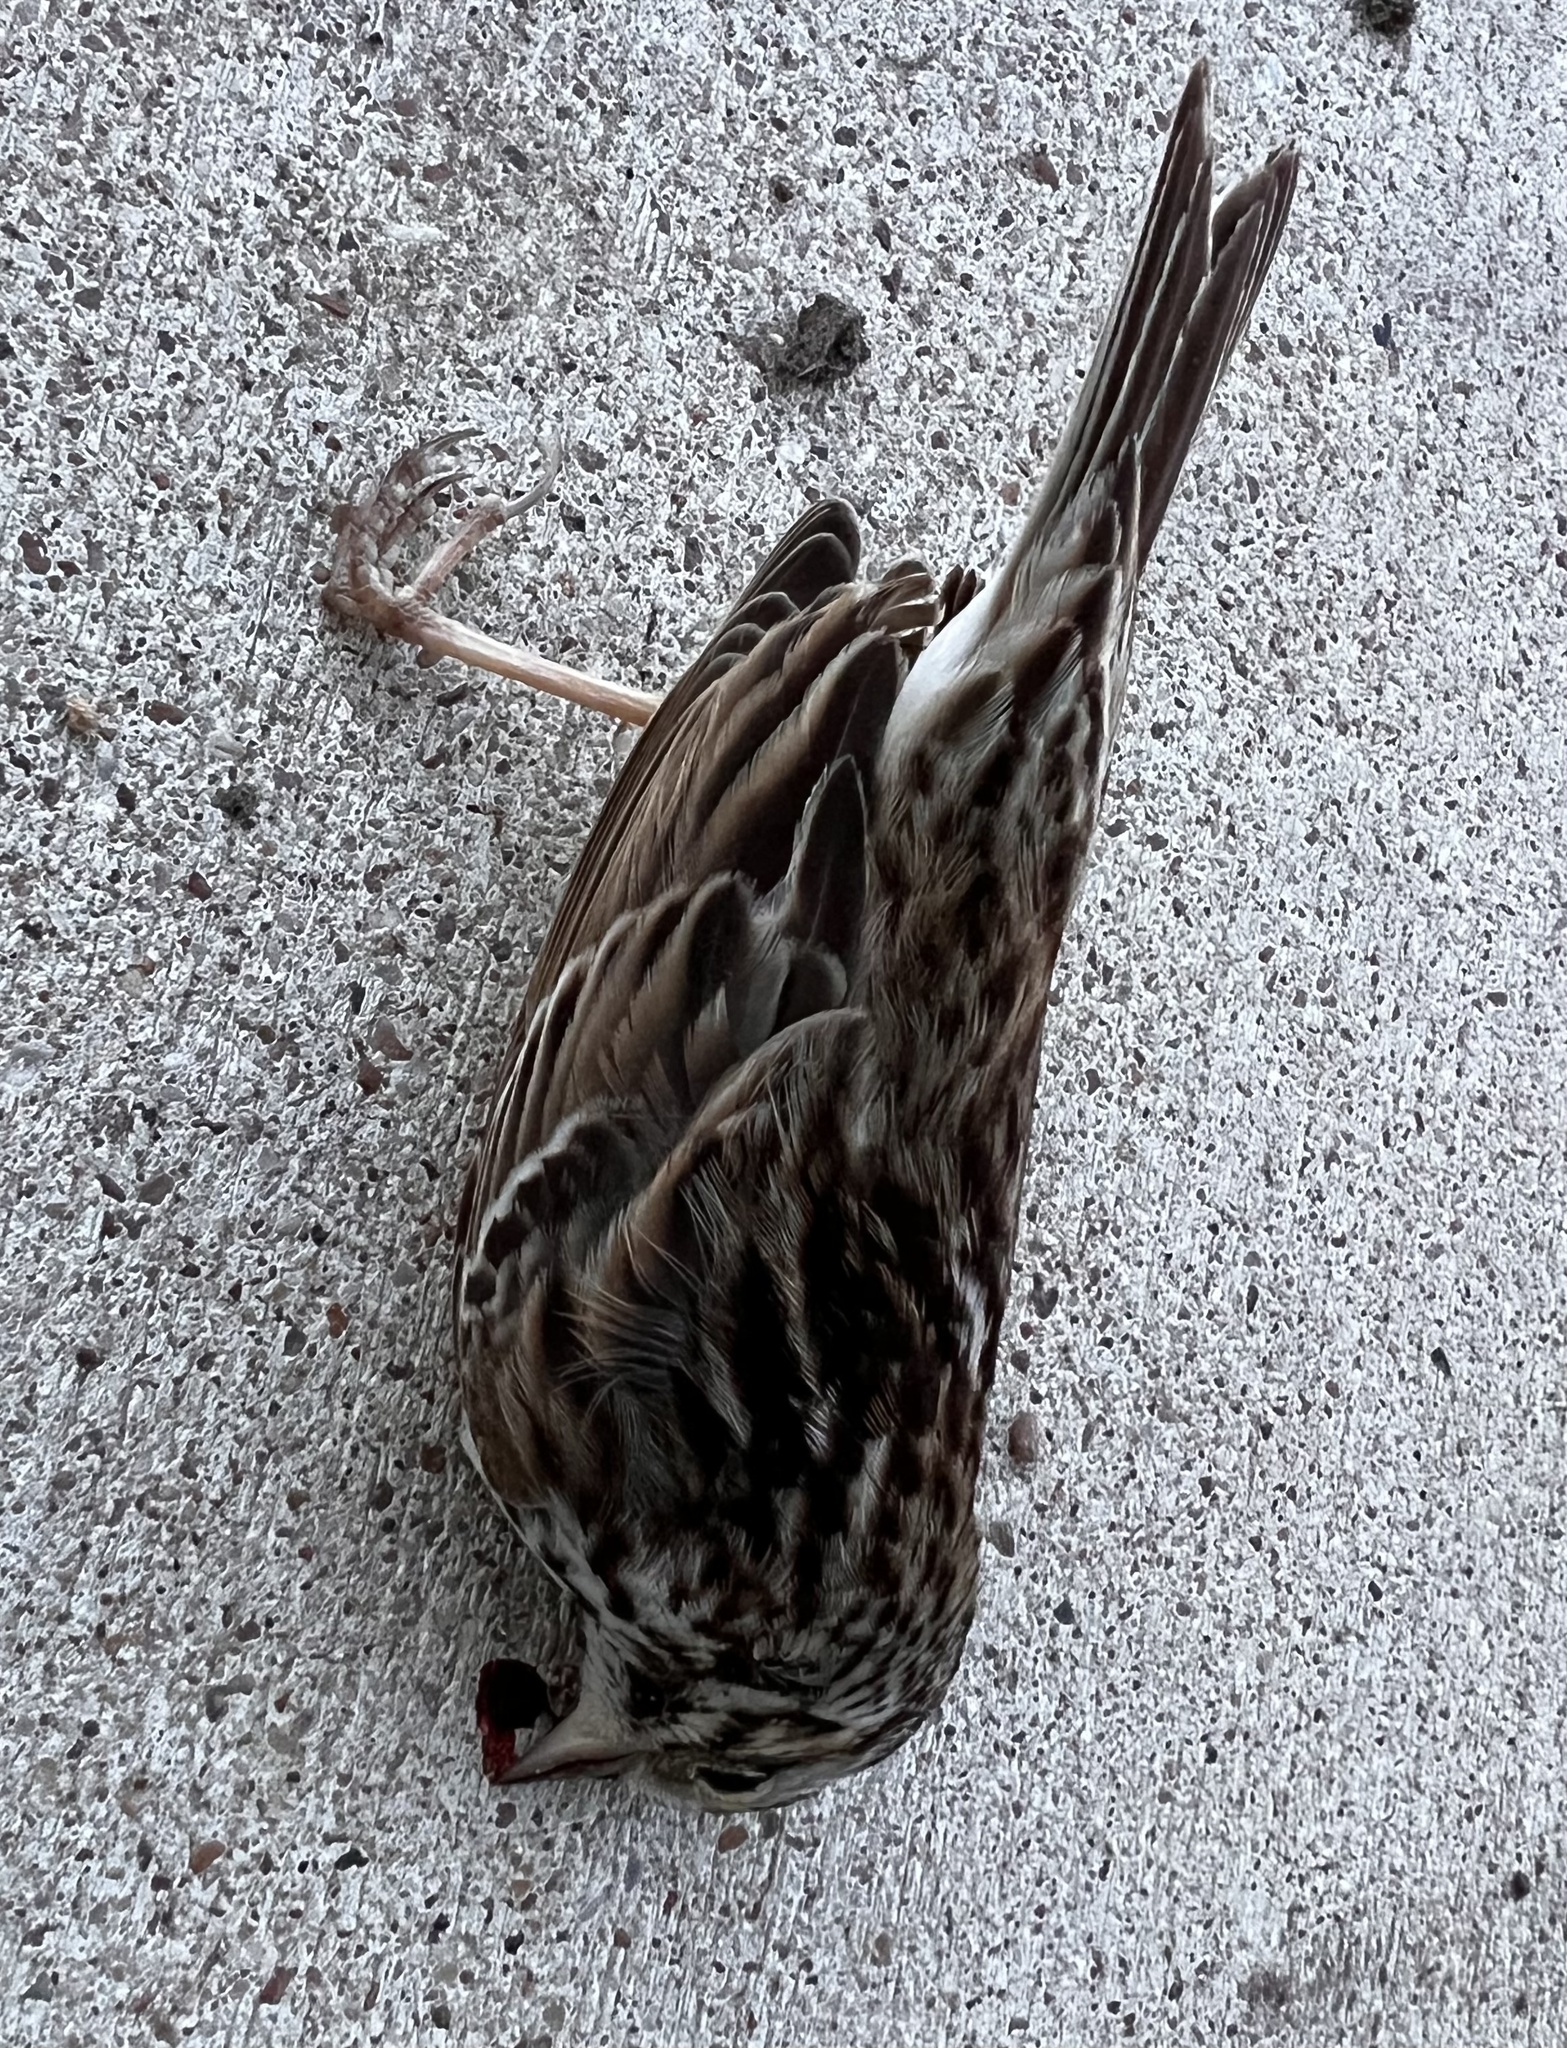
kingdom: Animalia
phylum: Chordata
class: Aves
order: Passeriformes
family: Passerellidae
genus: Passerculus
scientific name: Passerculus sandwichensis
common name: Savannah sparrow
